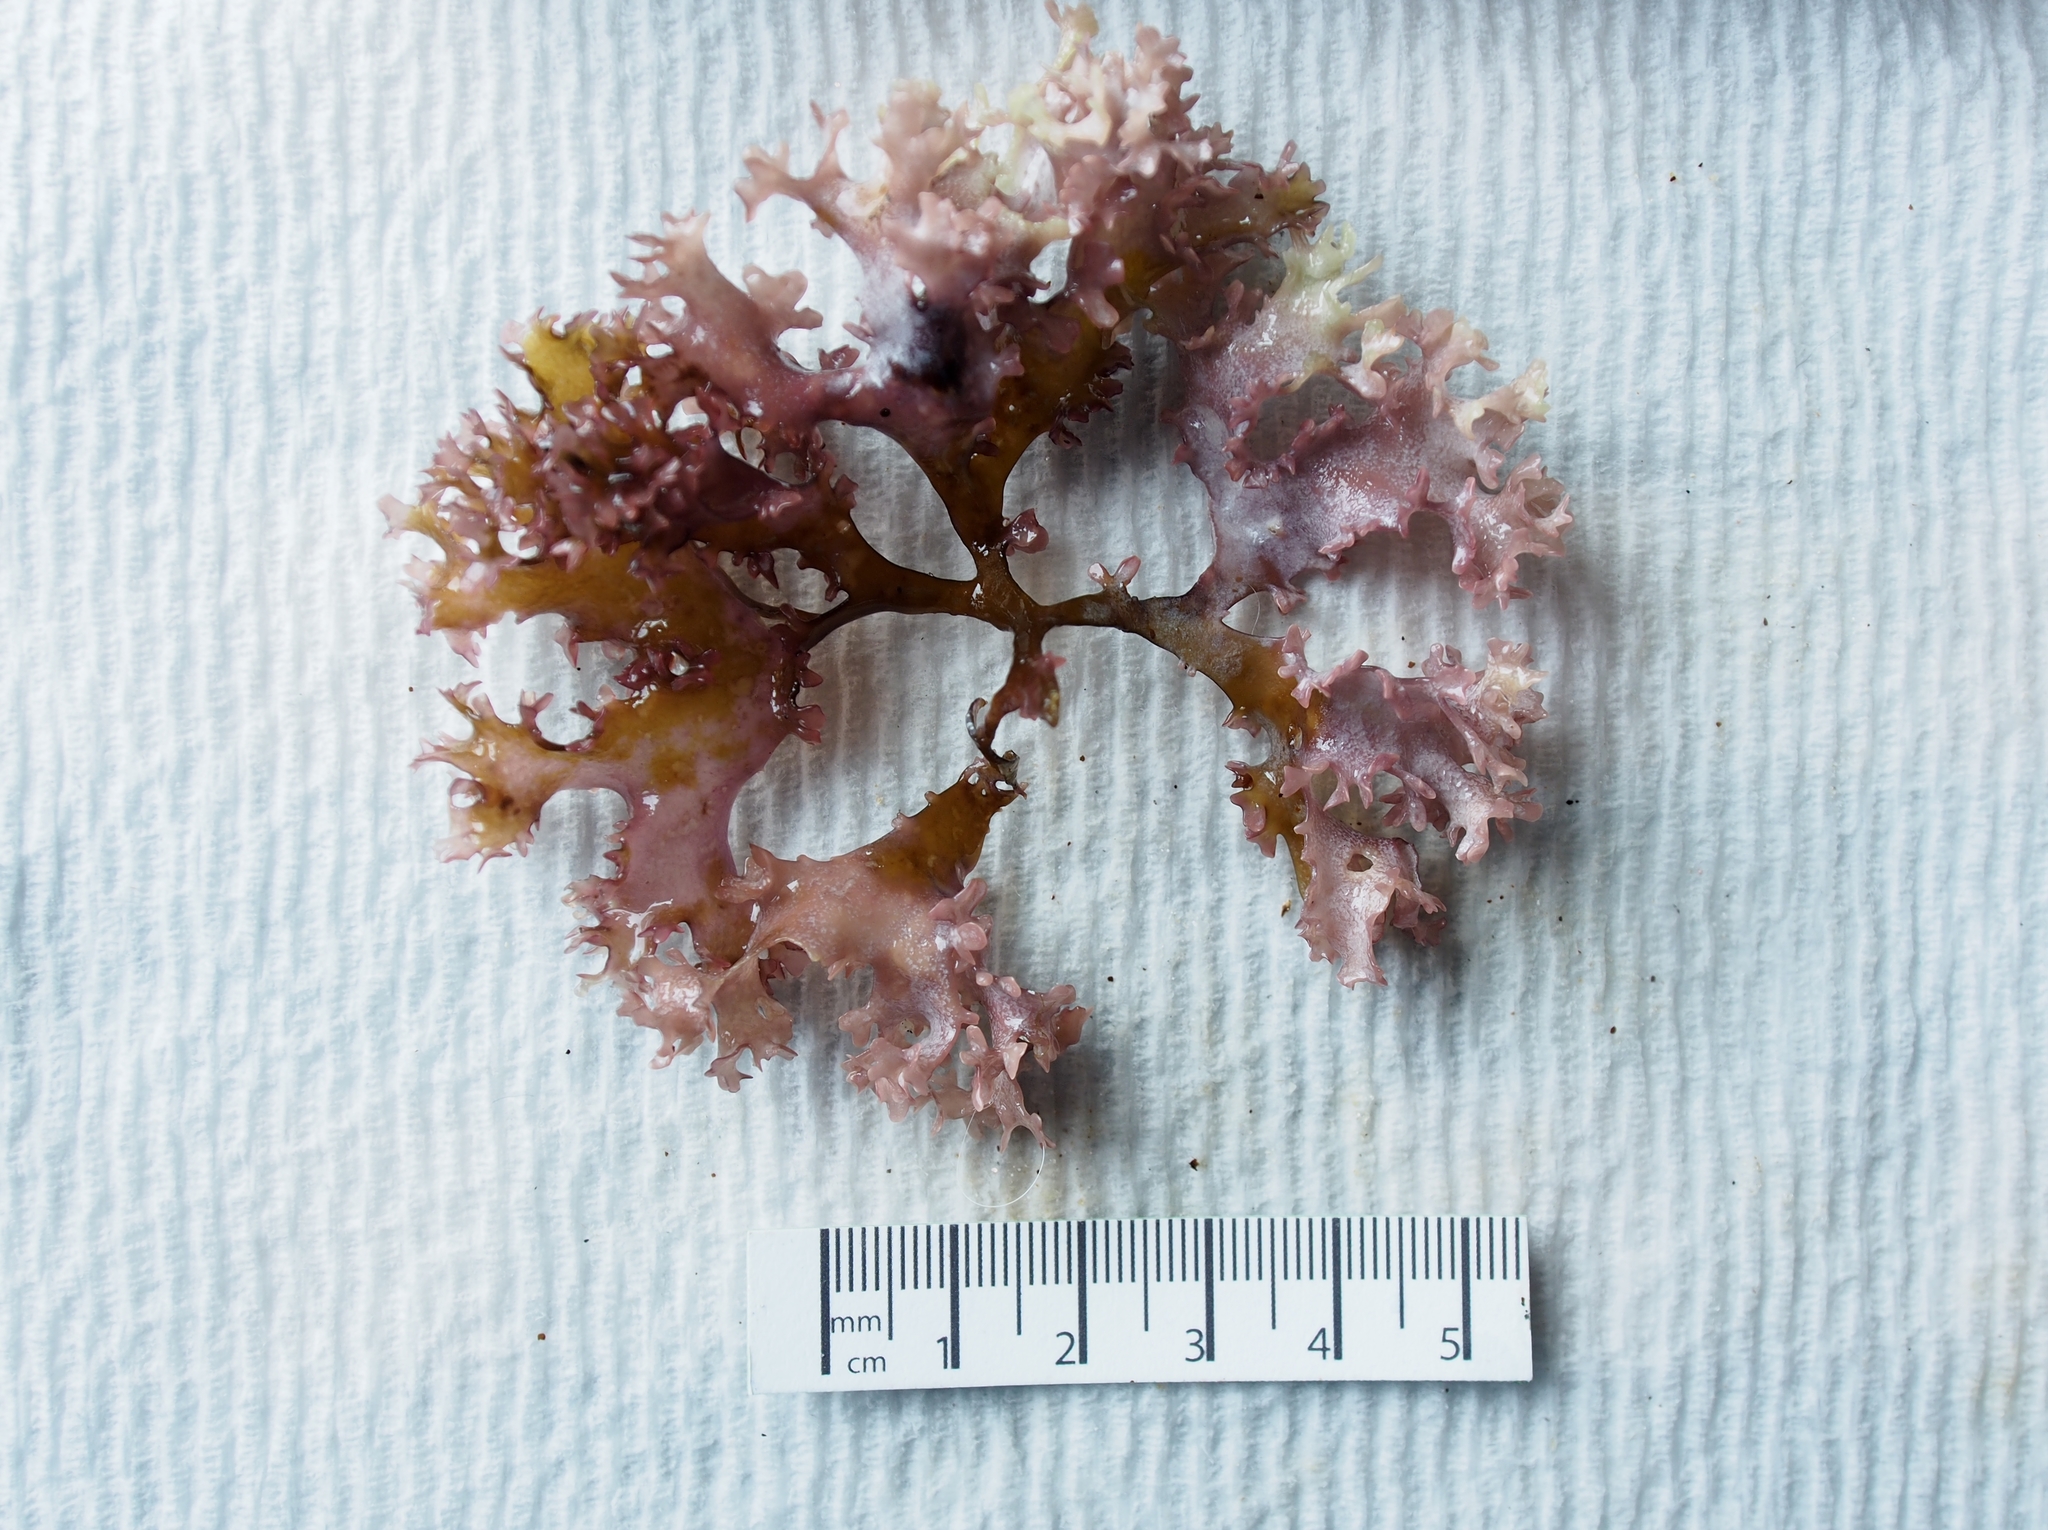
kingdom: Plantae
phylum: Rhodophyta
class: Florideophyceae
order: Gigartinales
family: Gigartinaceae
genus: Chondrus
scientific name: Chondrus crispus
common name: Carrageen
